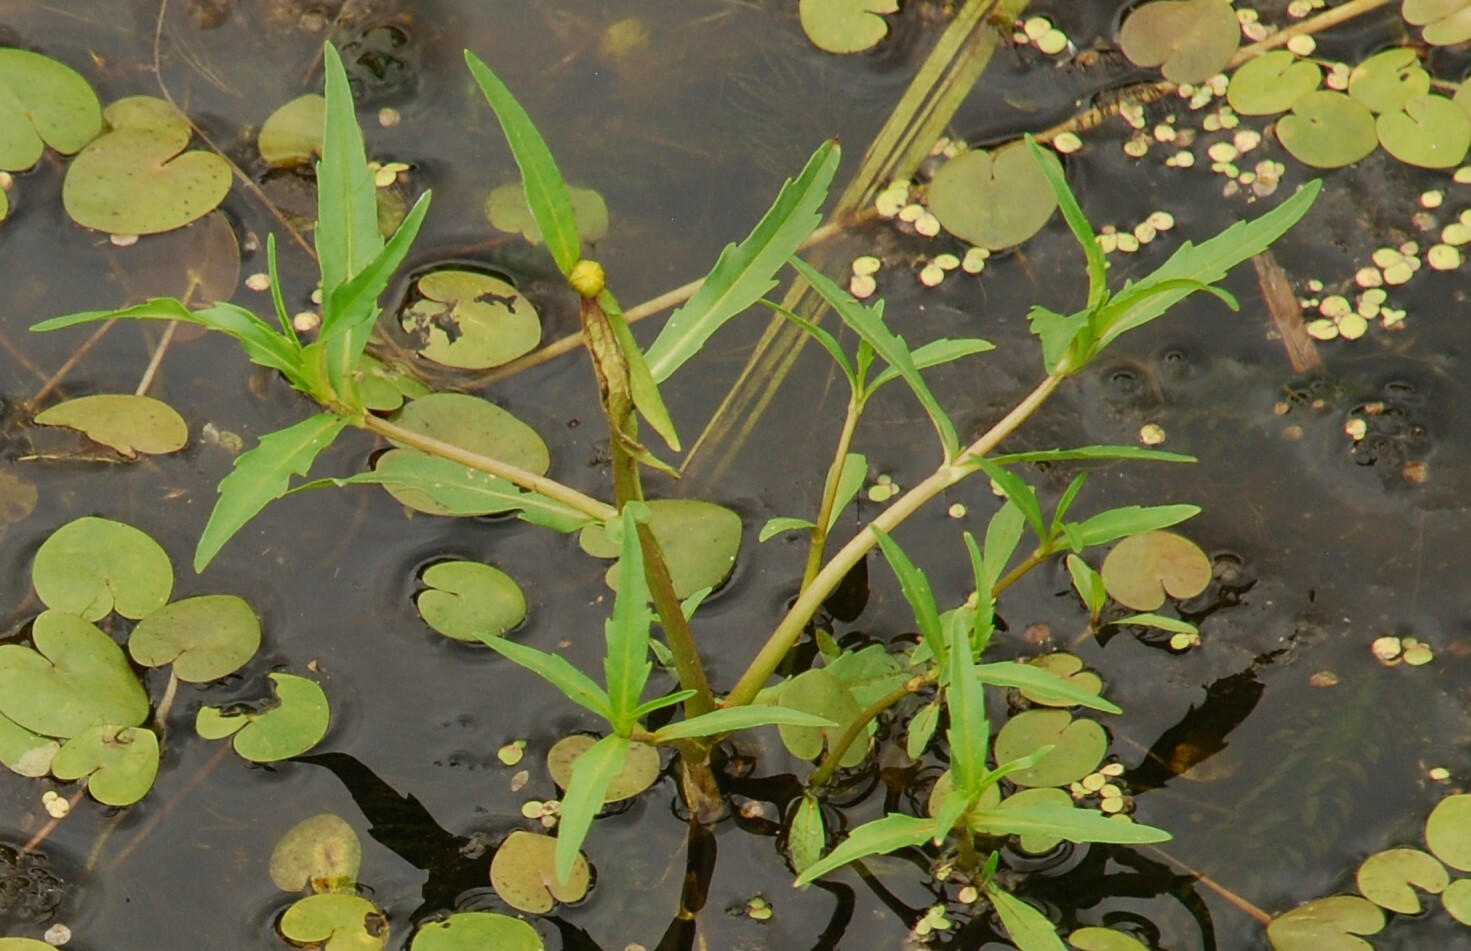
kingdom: Plantae
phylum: Tracheophyta
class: Magnoliopsida
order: Asterales
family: Asteraceae
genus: Bidens
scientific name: Bidens cernua
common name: Nodding bur-marigold
